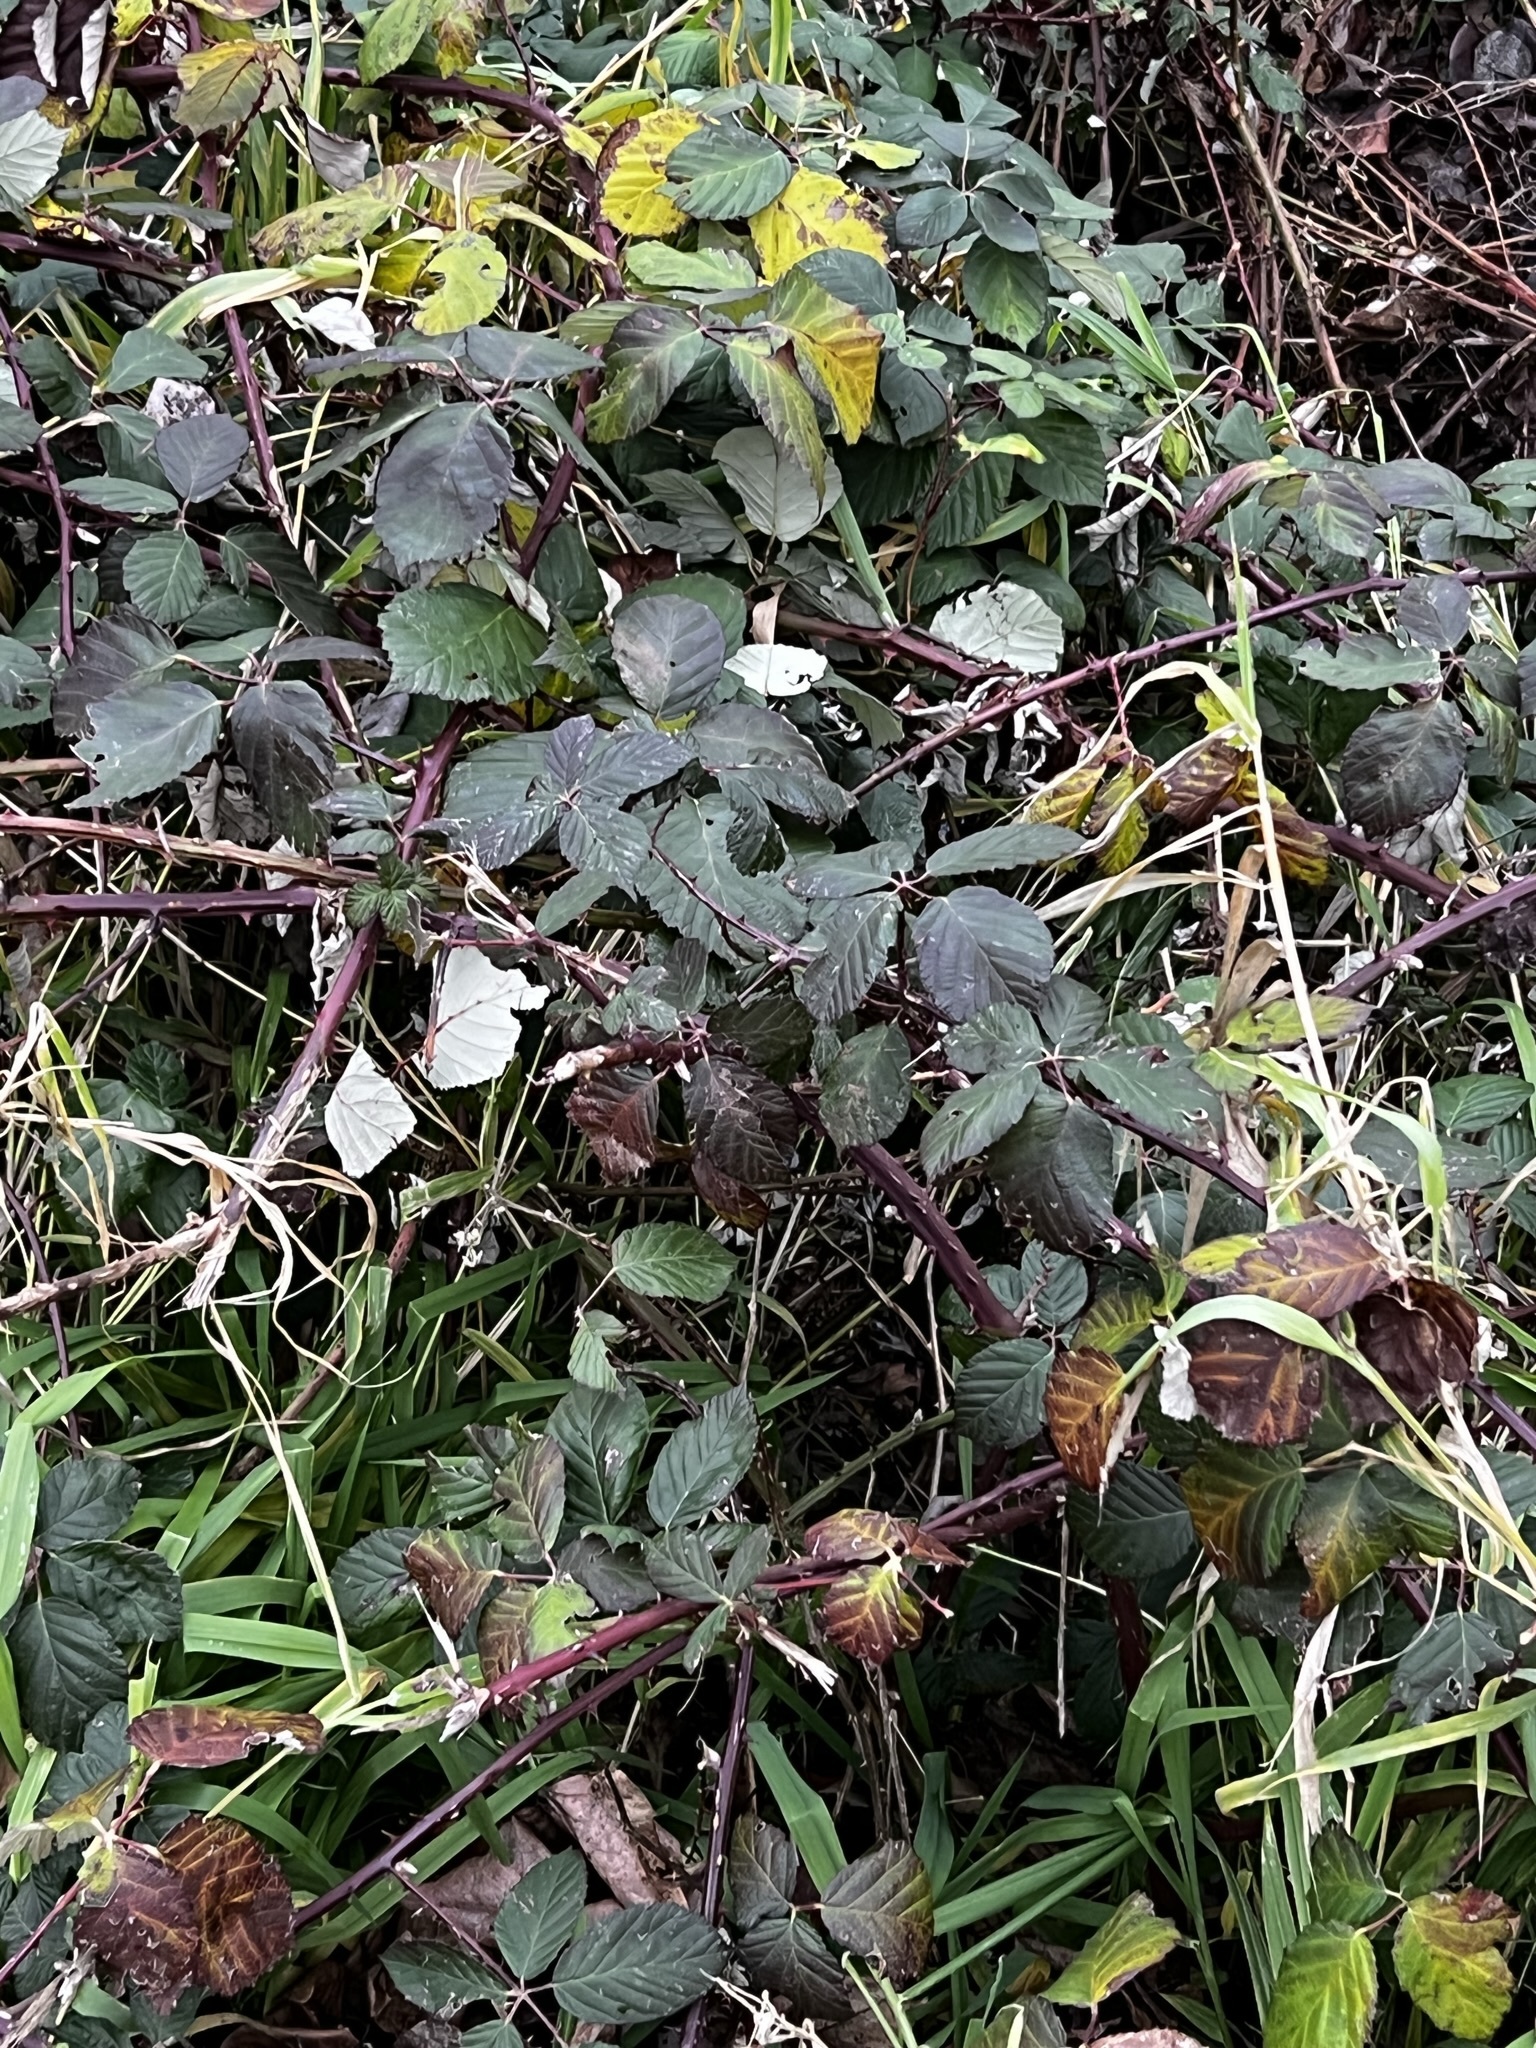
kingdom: Plantae
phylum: Tracheophyta
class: Magnoliopsida
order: Rosales
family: Rosaceae
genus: Rubus
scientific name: Rubus armeniacus
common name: Himalayan blackberry
